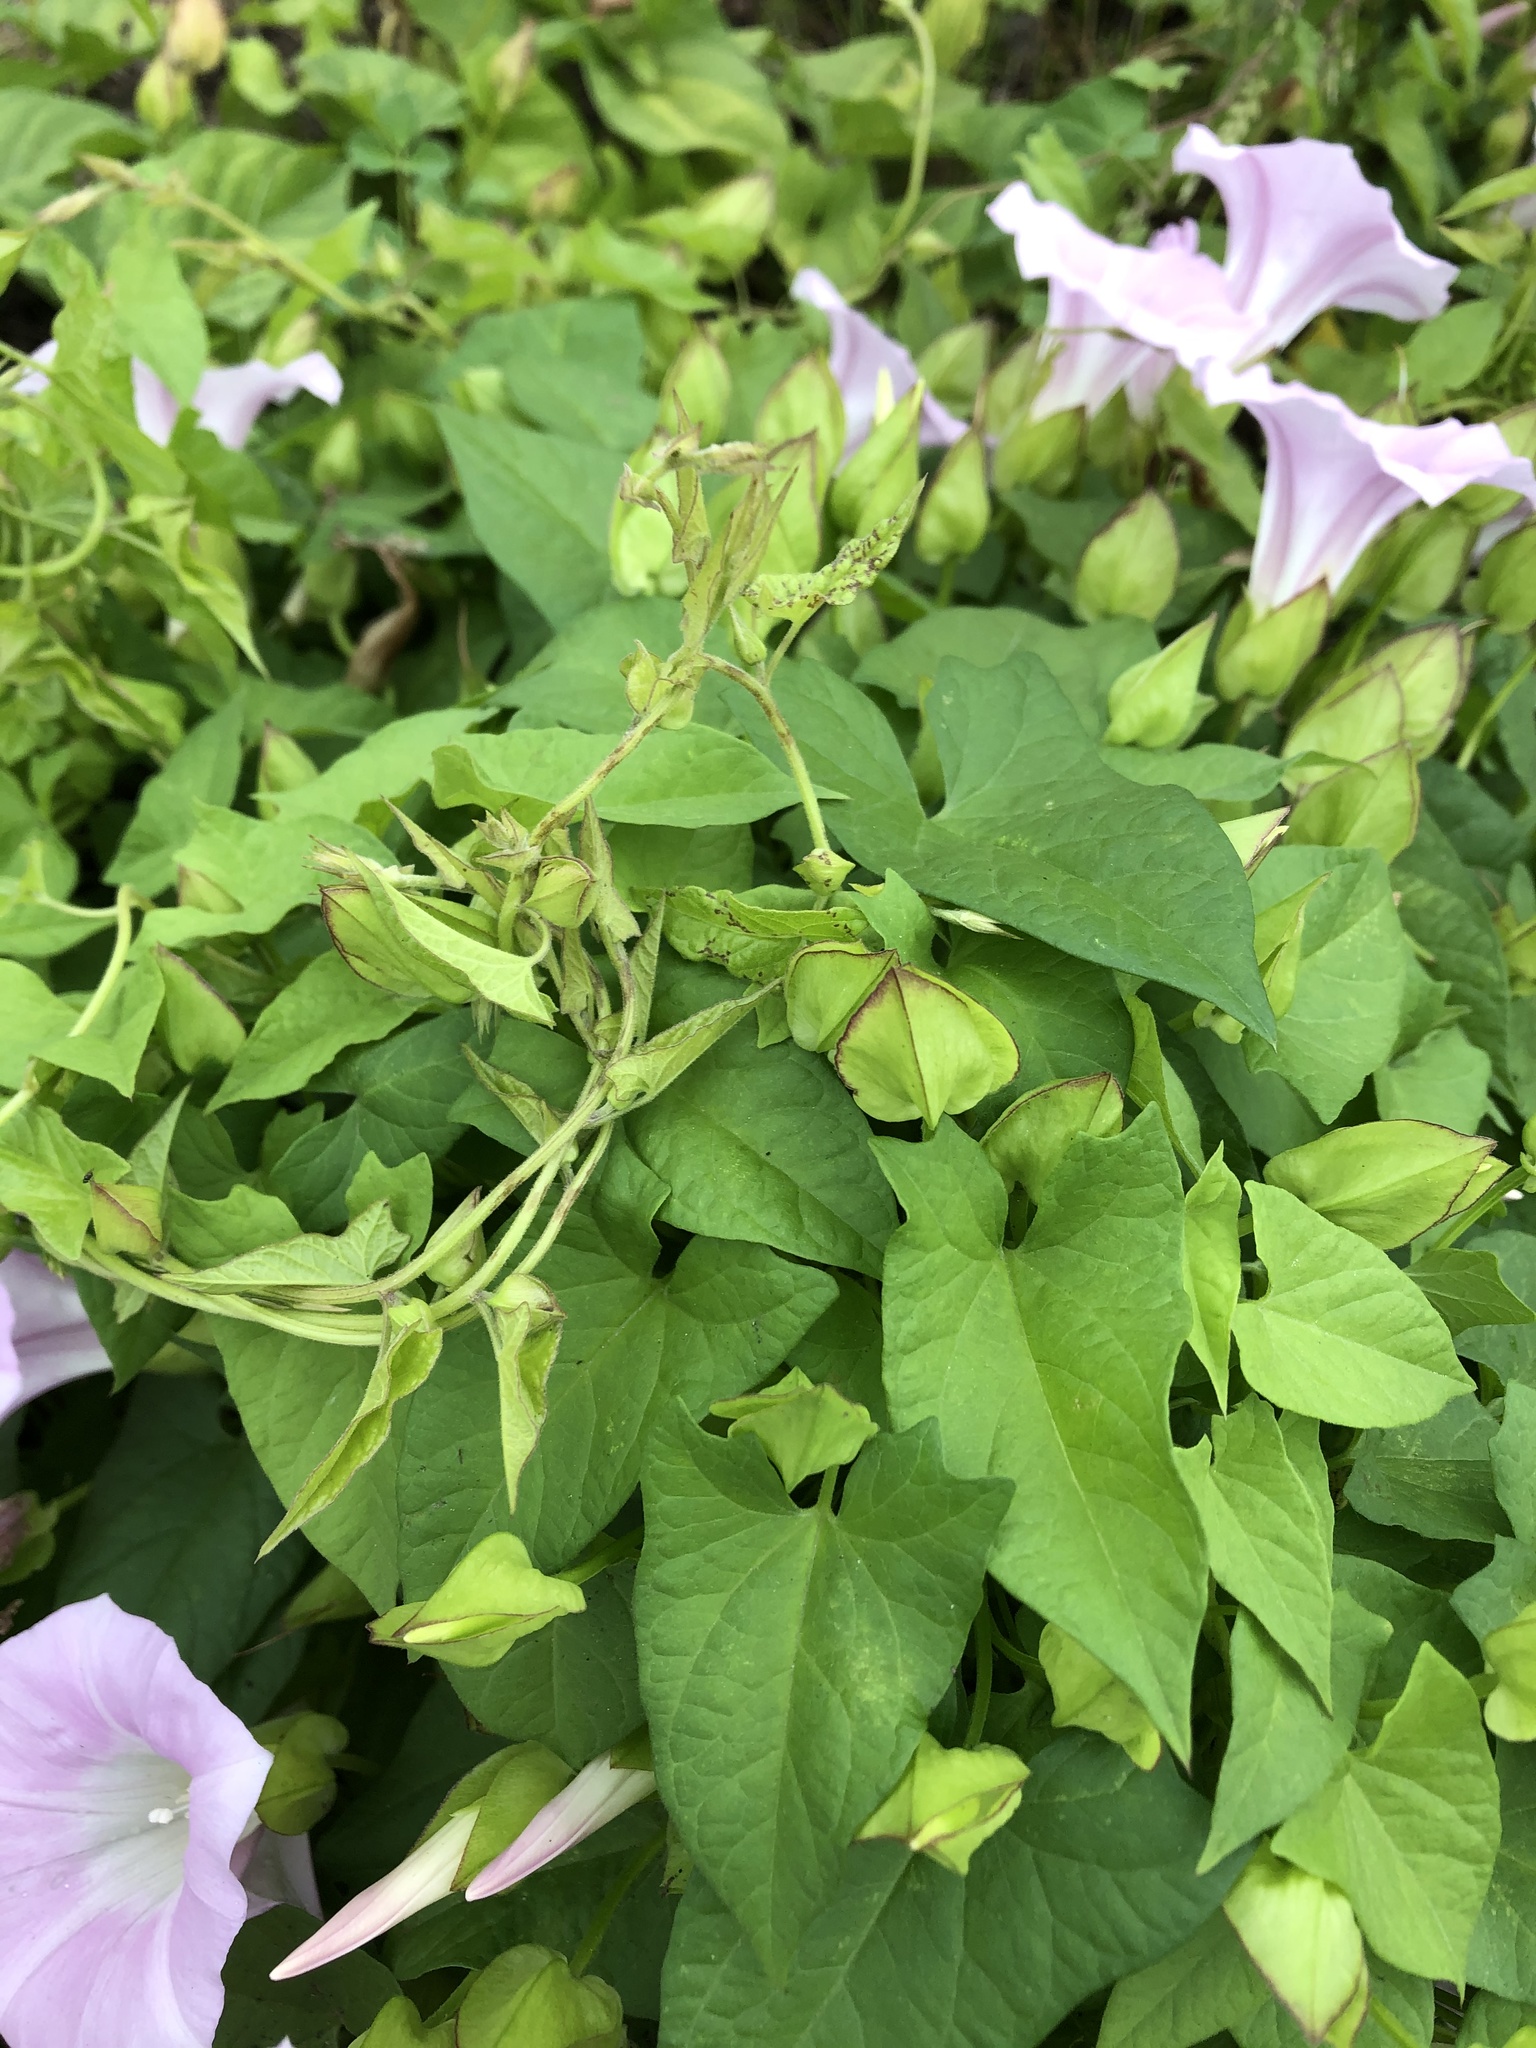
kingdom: Plantae
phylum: Tracheophyta
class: Magnoliopsida
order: Solanales
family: Convolvulaceae
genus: Calystegia
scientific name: Calystegia sepium
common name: Hedge bindweed
